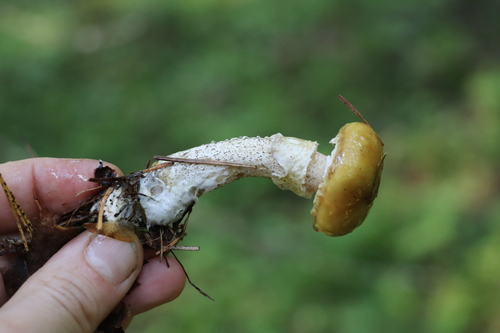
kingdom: Fungi
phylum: Basidiomycota
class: Agaricomycetes
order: Boletales
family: Suillaceae
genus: Suillus
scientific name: Suillus acidus
